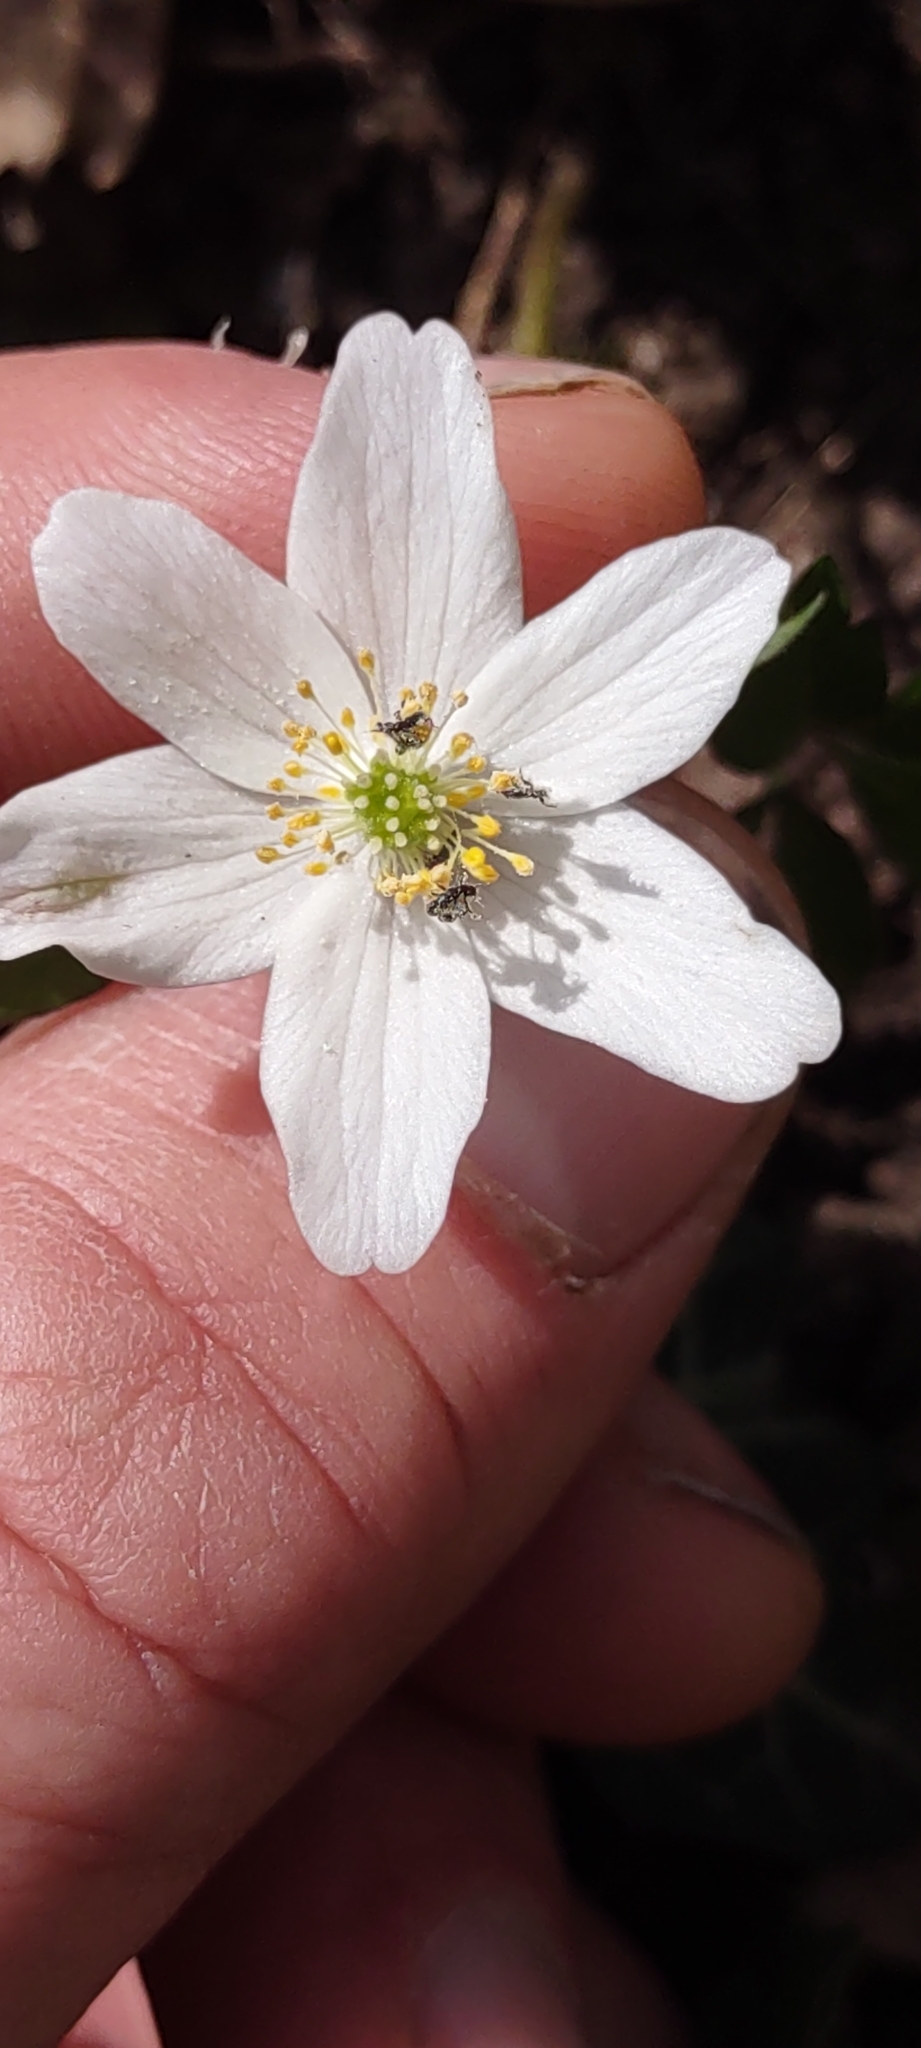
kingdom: Plantae
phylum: Tracheophyta
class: Magnoliopsida
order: Ranunculales
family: Ranunculaceae
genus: Anemone
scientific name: Anemone nemorosa
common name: Wood anemone
